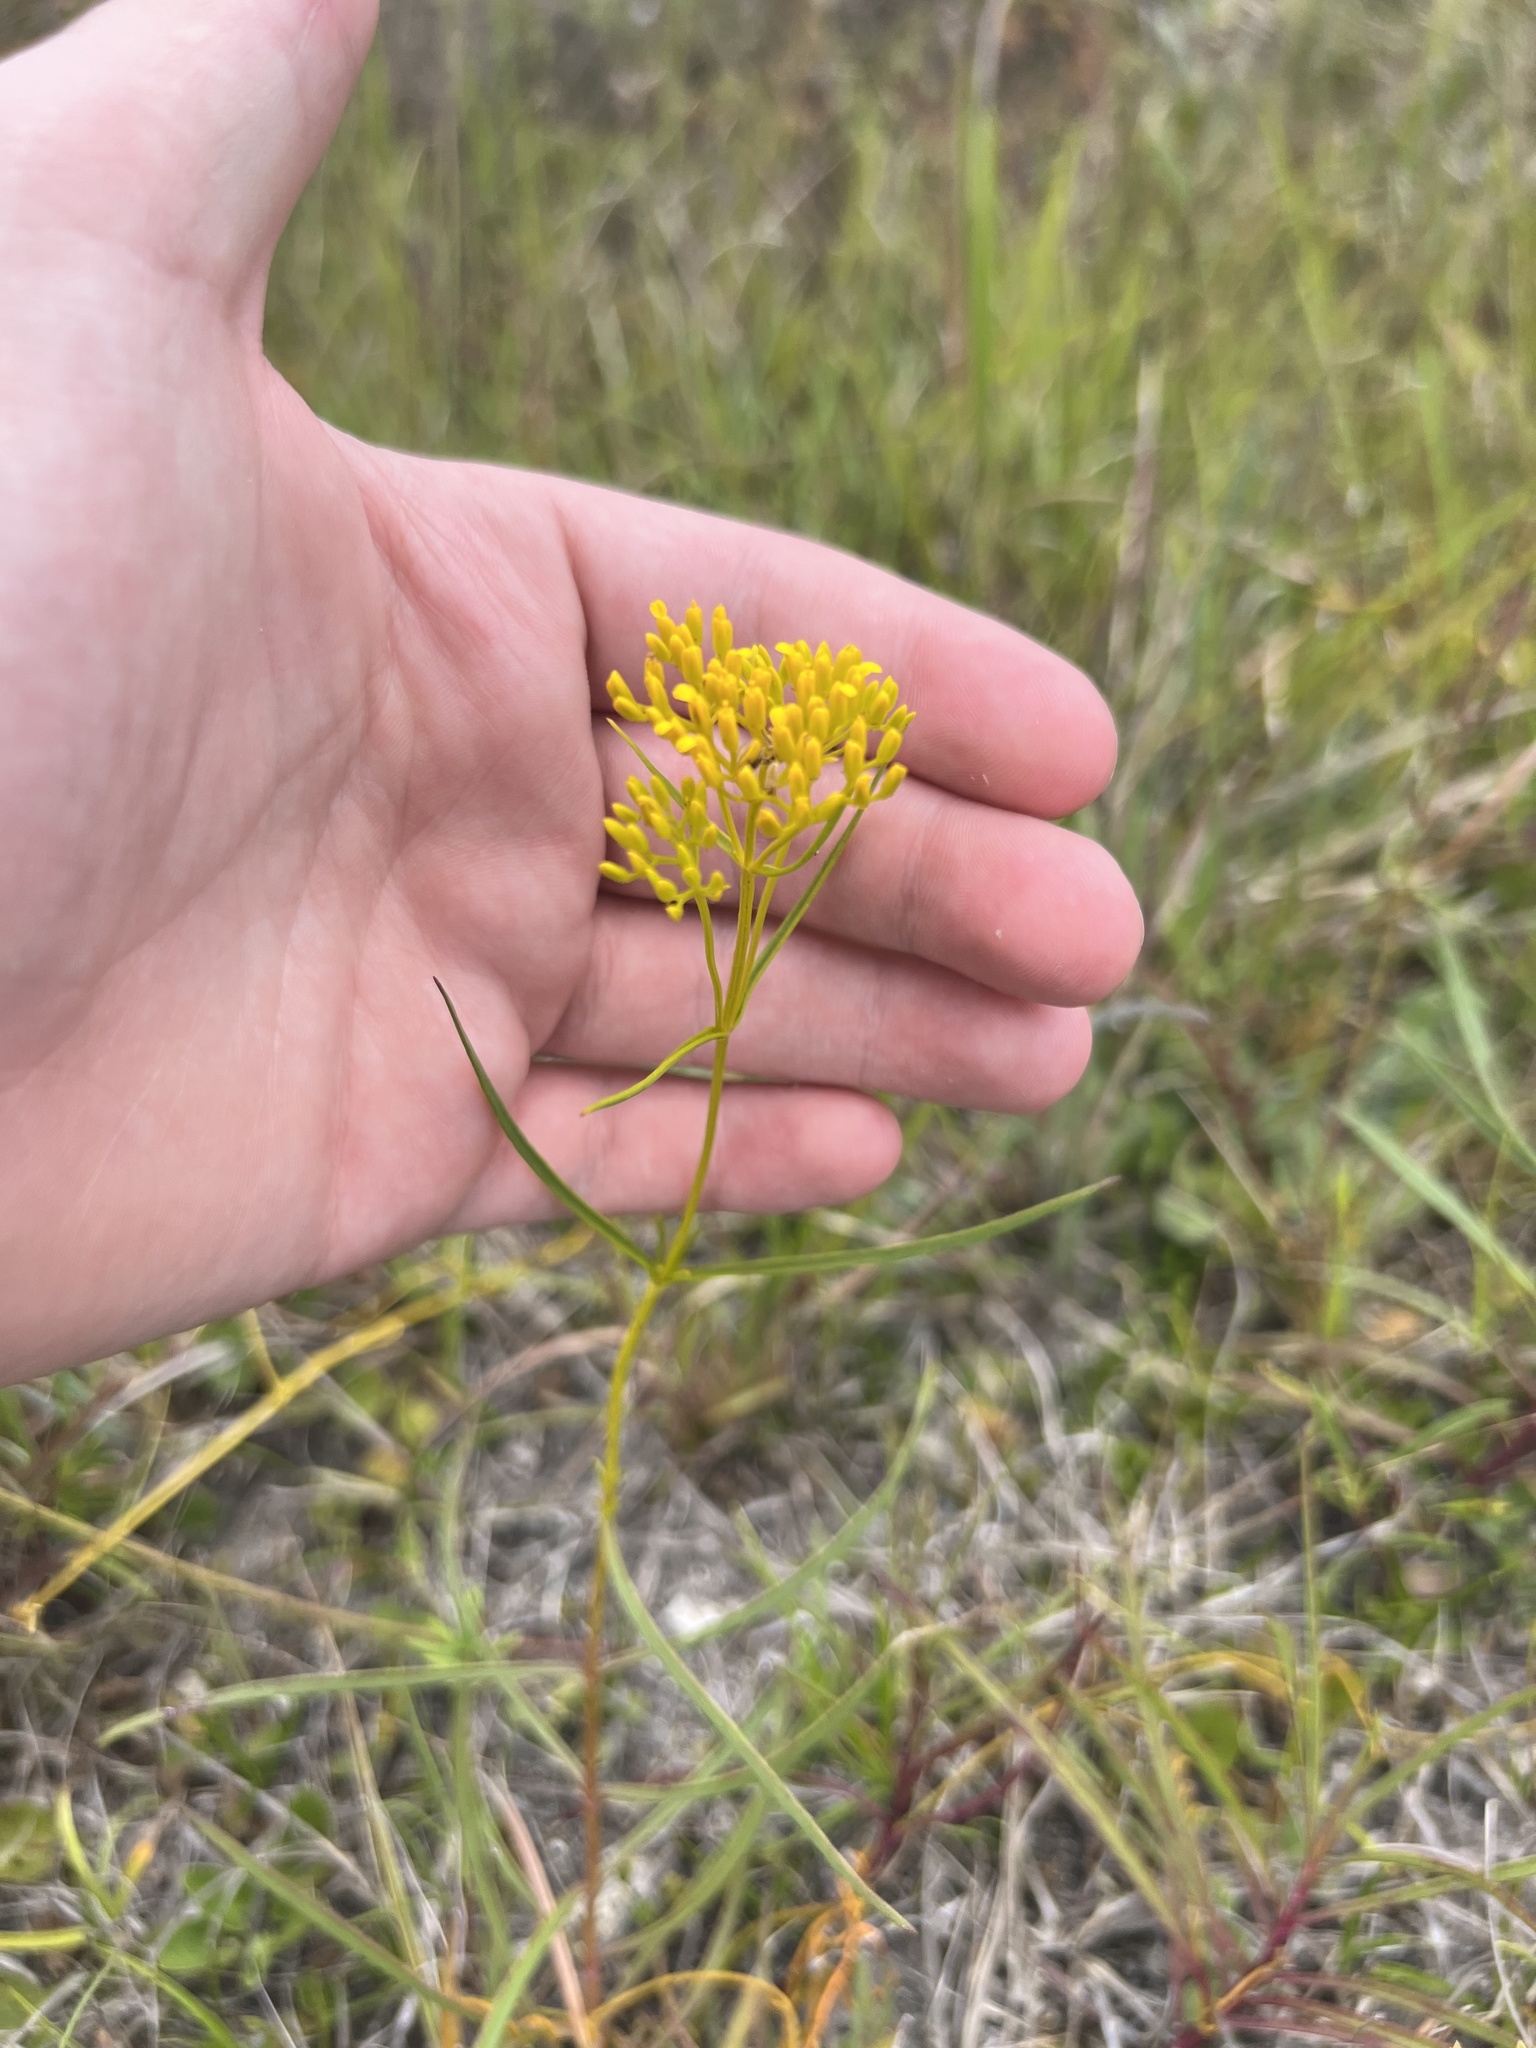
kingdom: Plantae
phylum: Tracheophyta
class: Magnoliopsida
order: Asterales
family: Asteraceae
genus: Flaveria
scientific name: Flaveria linearis
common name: Yellowtop
